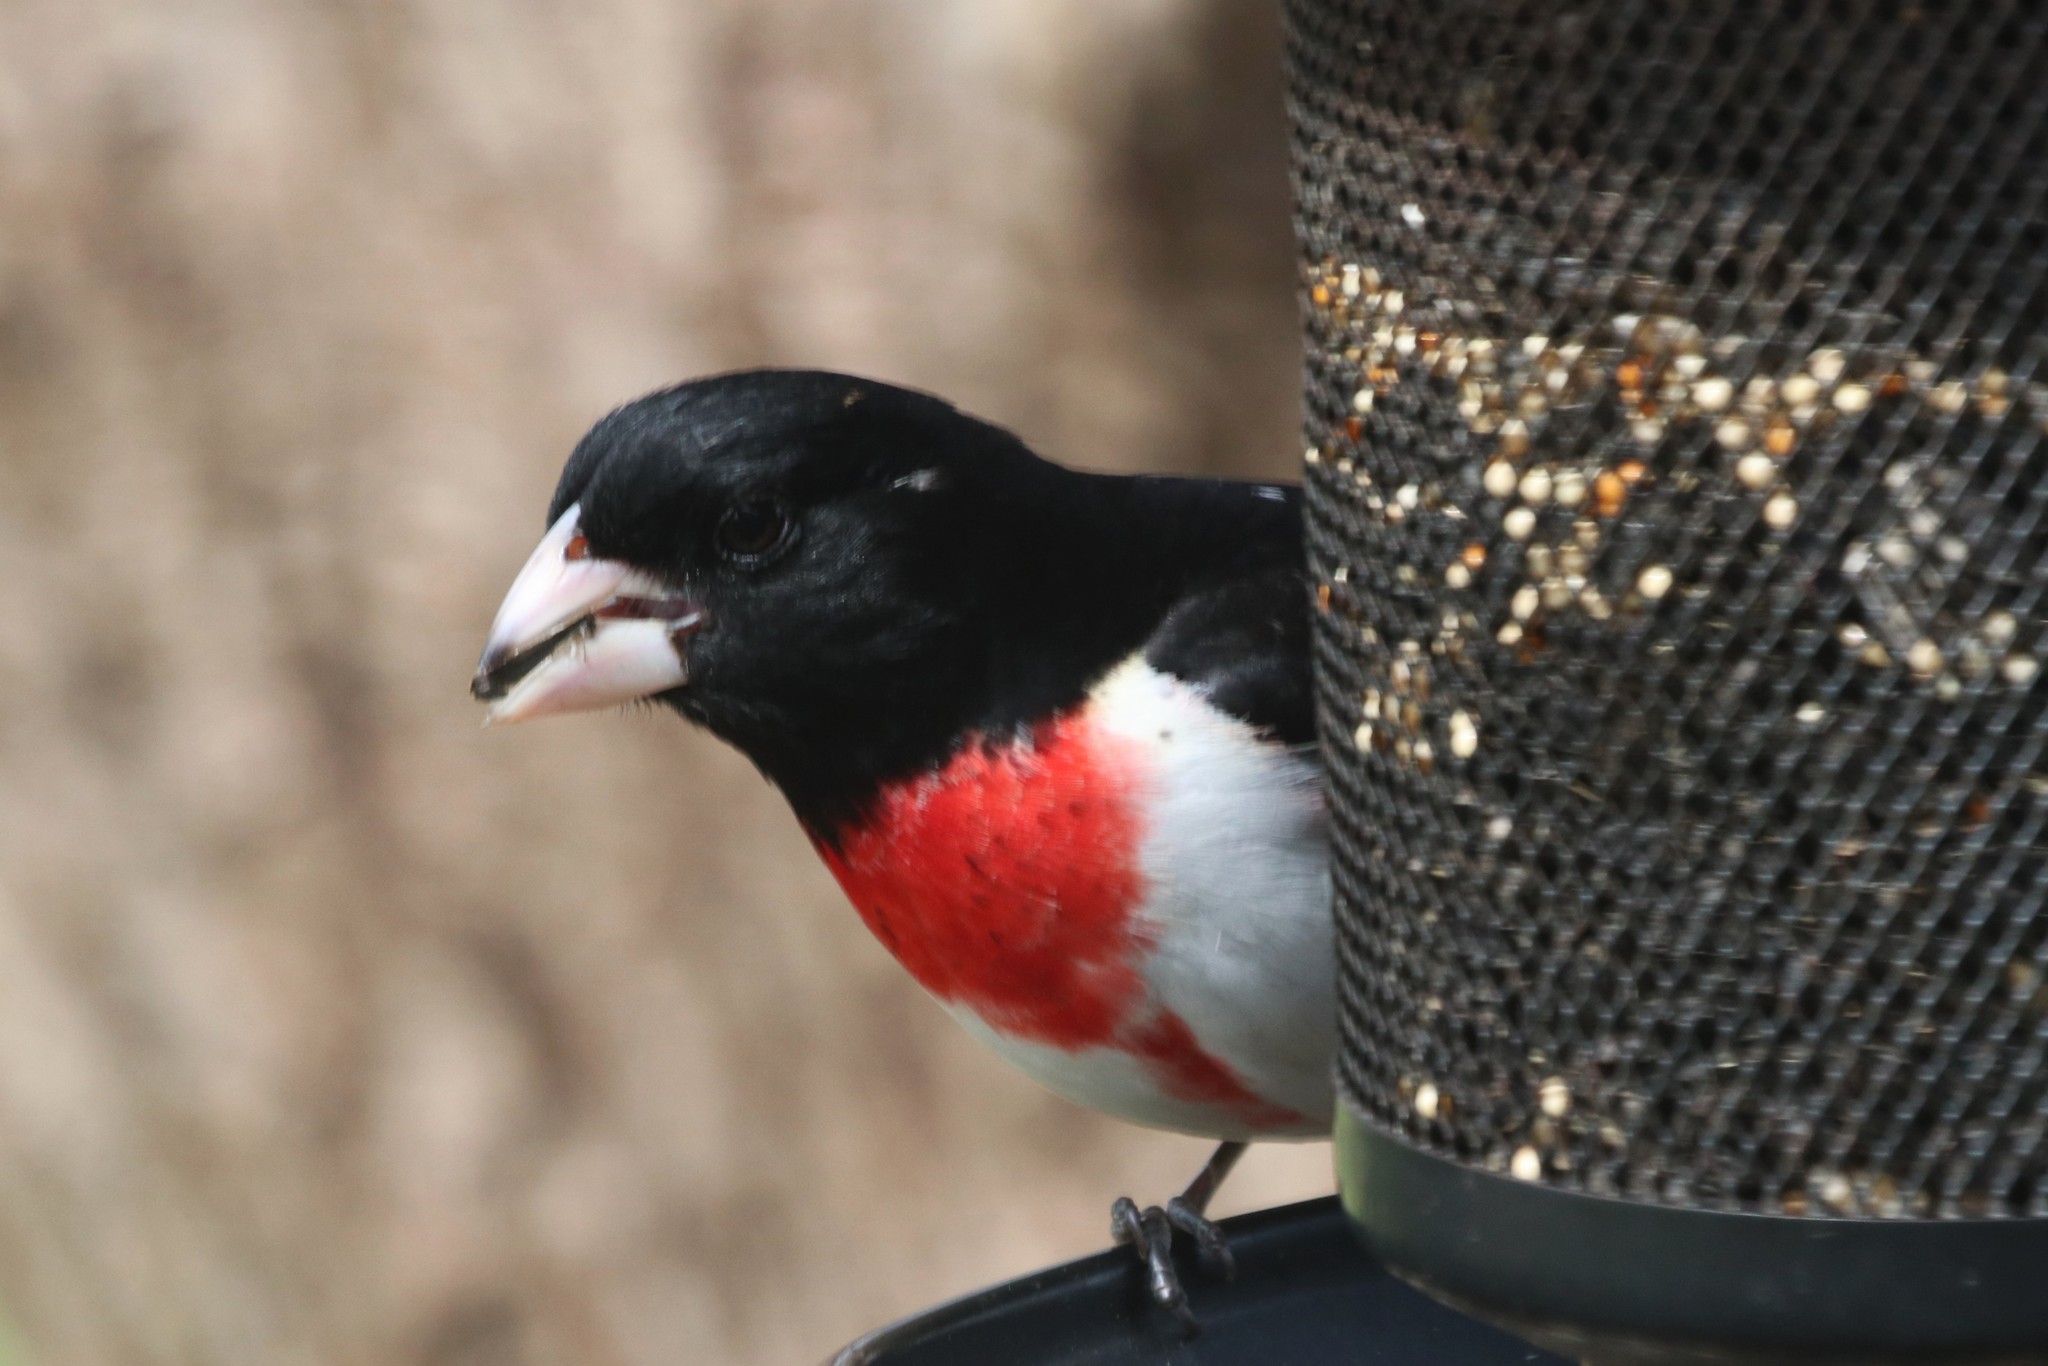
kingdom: Animalia
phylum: Chordata
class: Aves
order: Passeriformes
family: Cardinalidae
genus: Pheucticus
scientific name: Pheucticus ludovicianus
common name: Rose-breasted grosbeak
